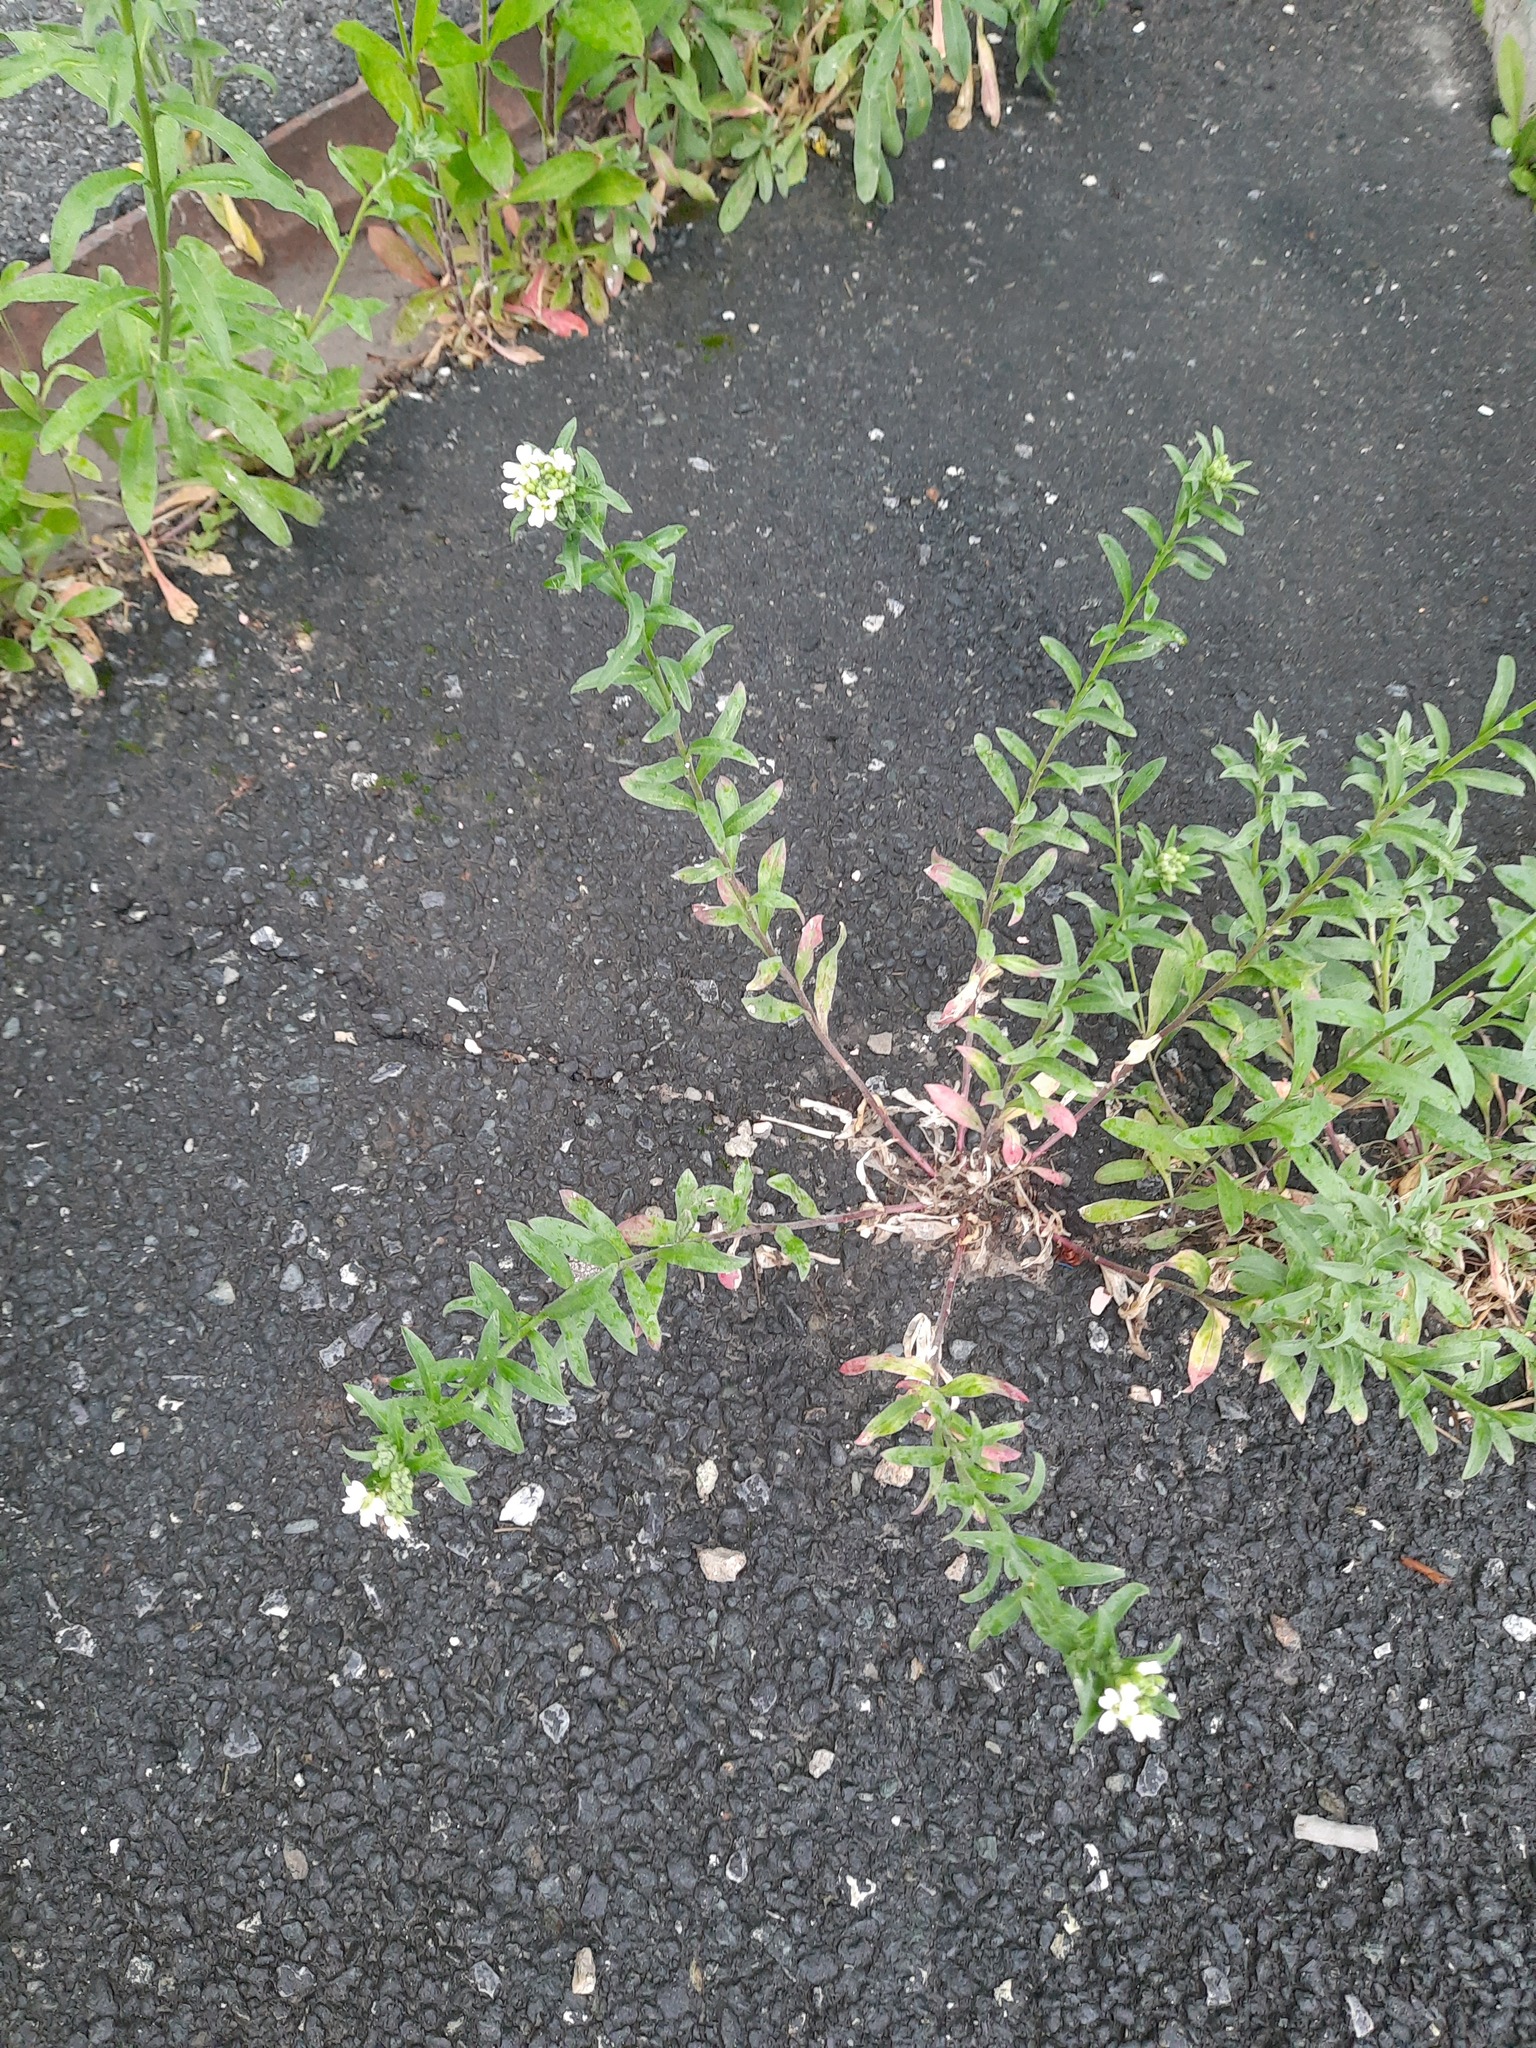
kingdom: Plantae
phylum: Tracheophyta
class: Magnoliopsida
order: Brassicales
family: Brassicaceae
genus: Berteroa
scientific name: Berteroa incana
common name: Hoary alison
